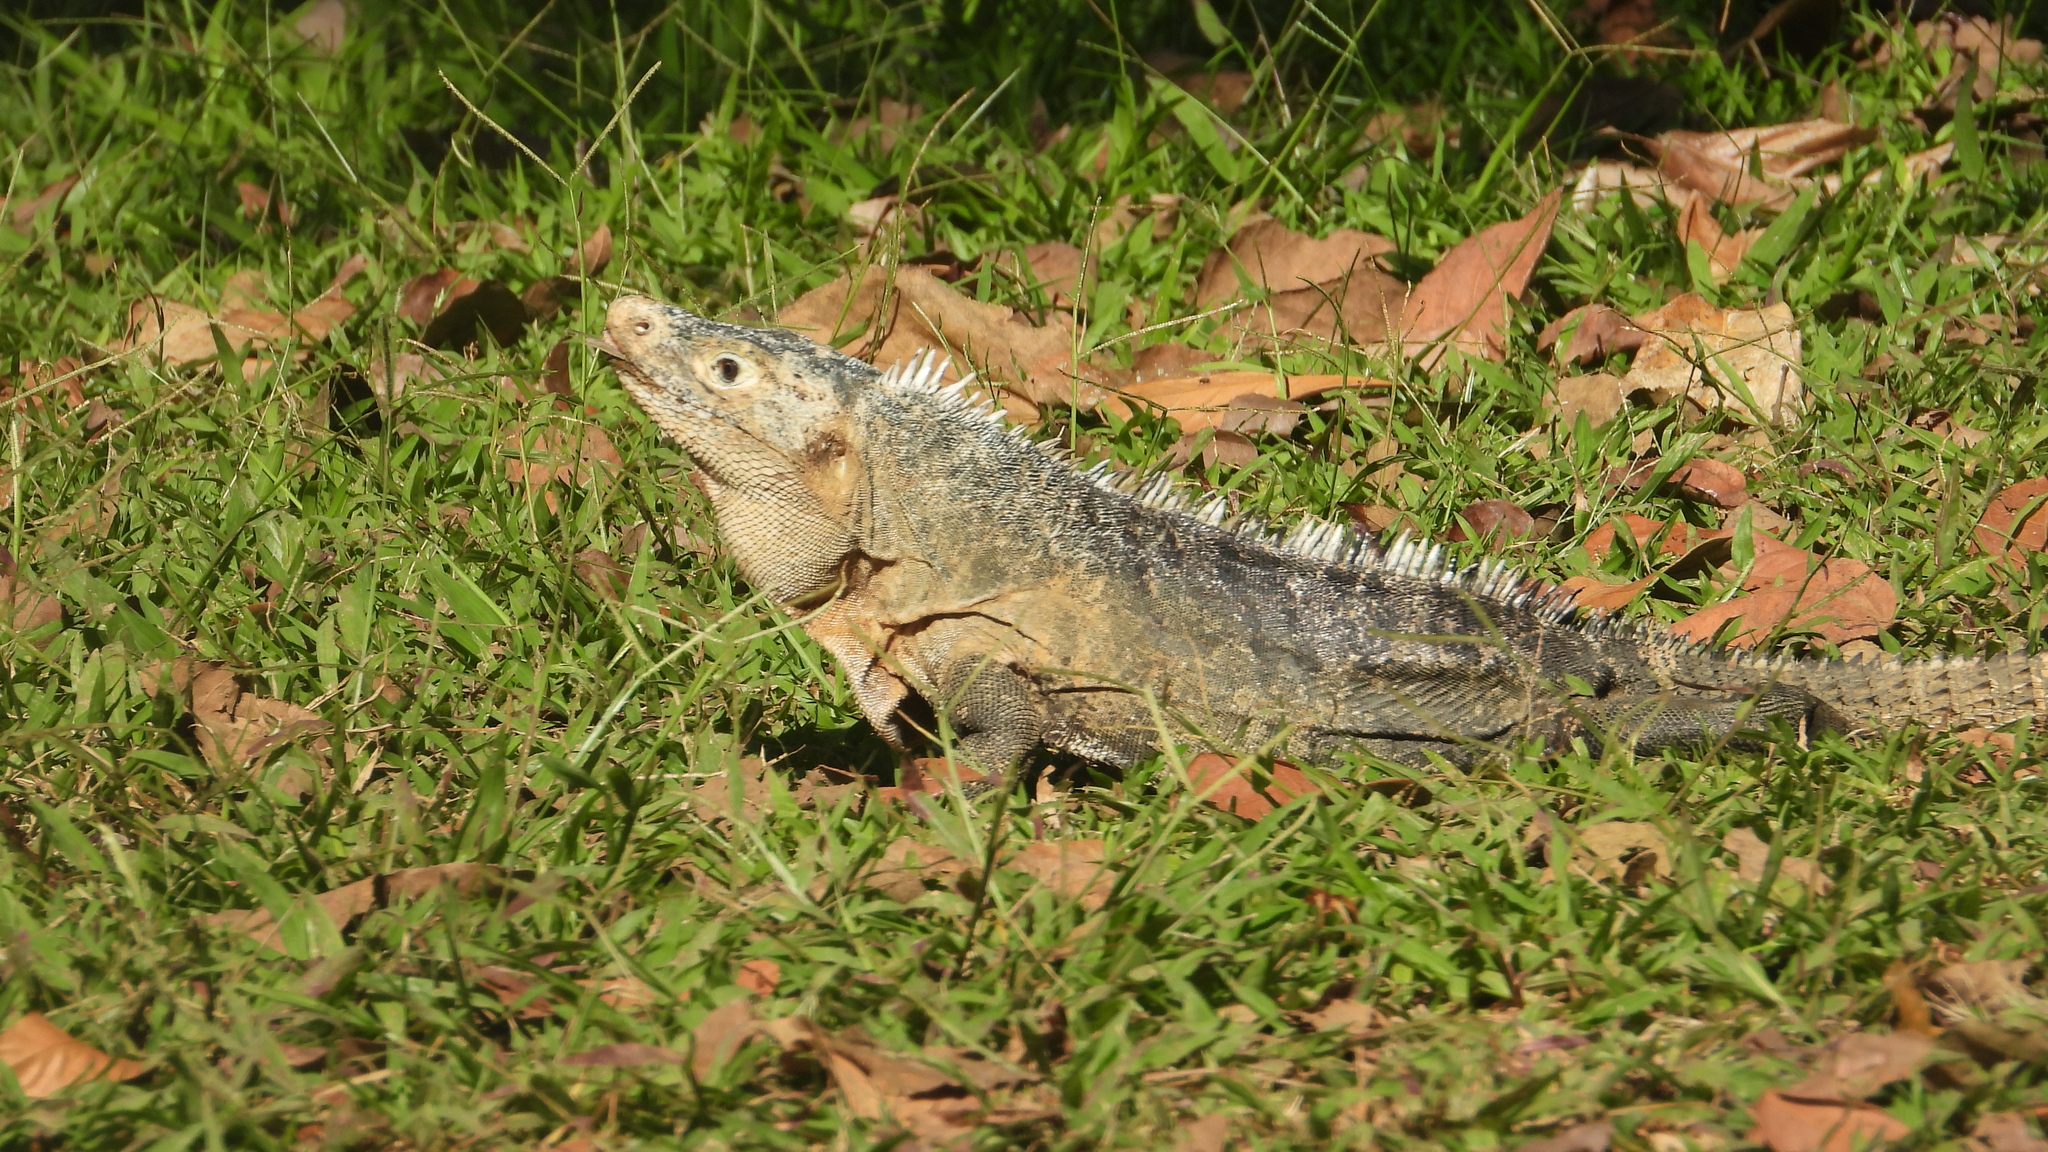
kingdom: Animalia
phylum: Chordata
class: Squamata
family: Iguanidae
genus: Ctenosaura
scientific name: Ctenosaura similis
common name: Black spiny-tailed iguana
